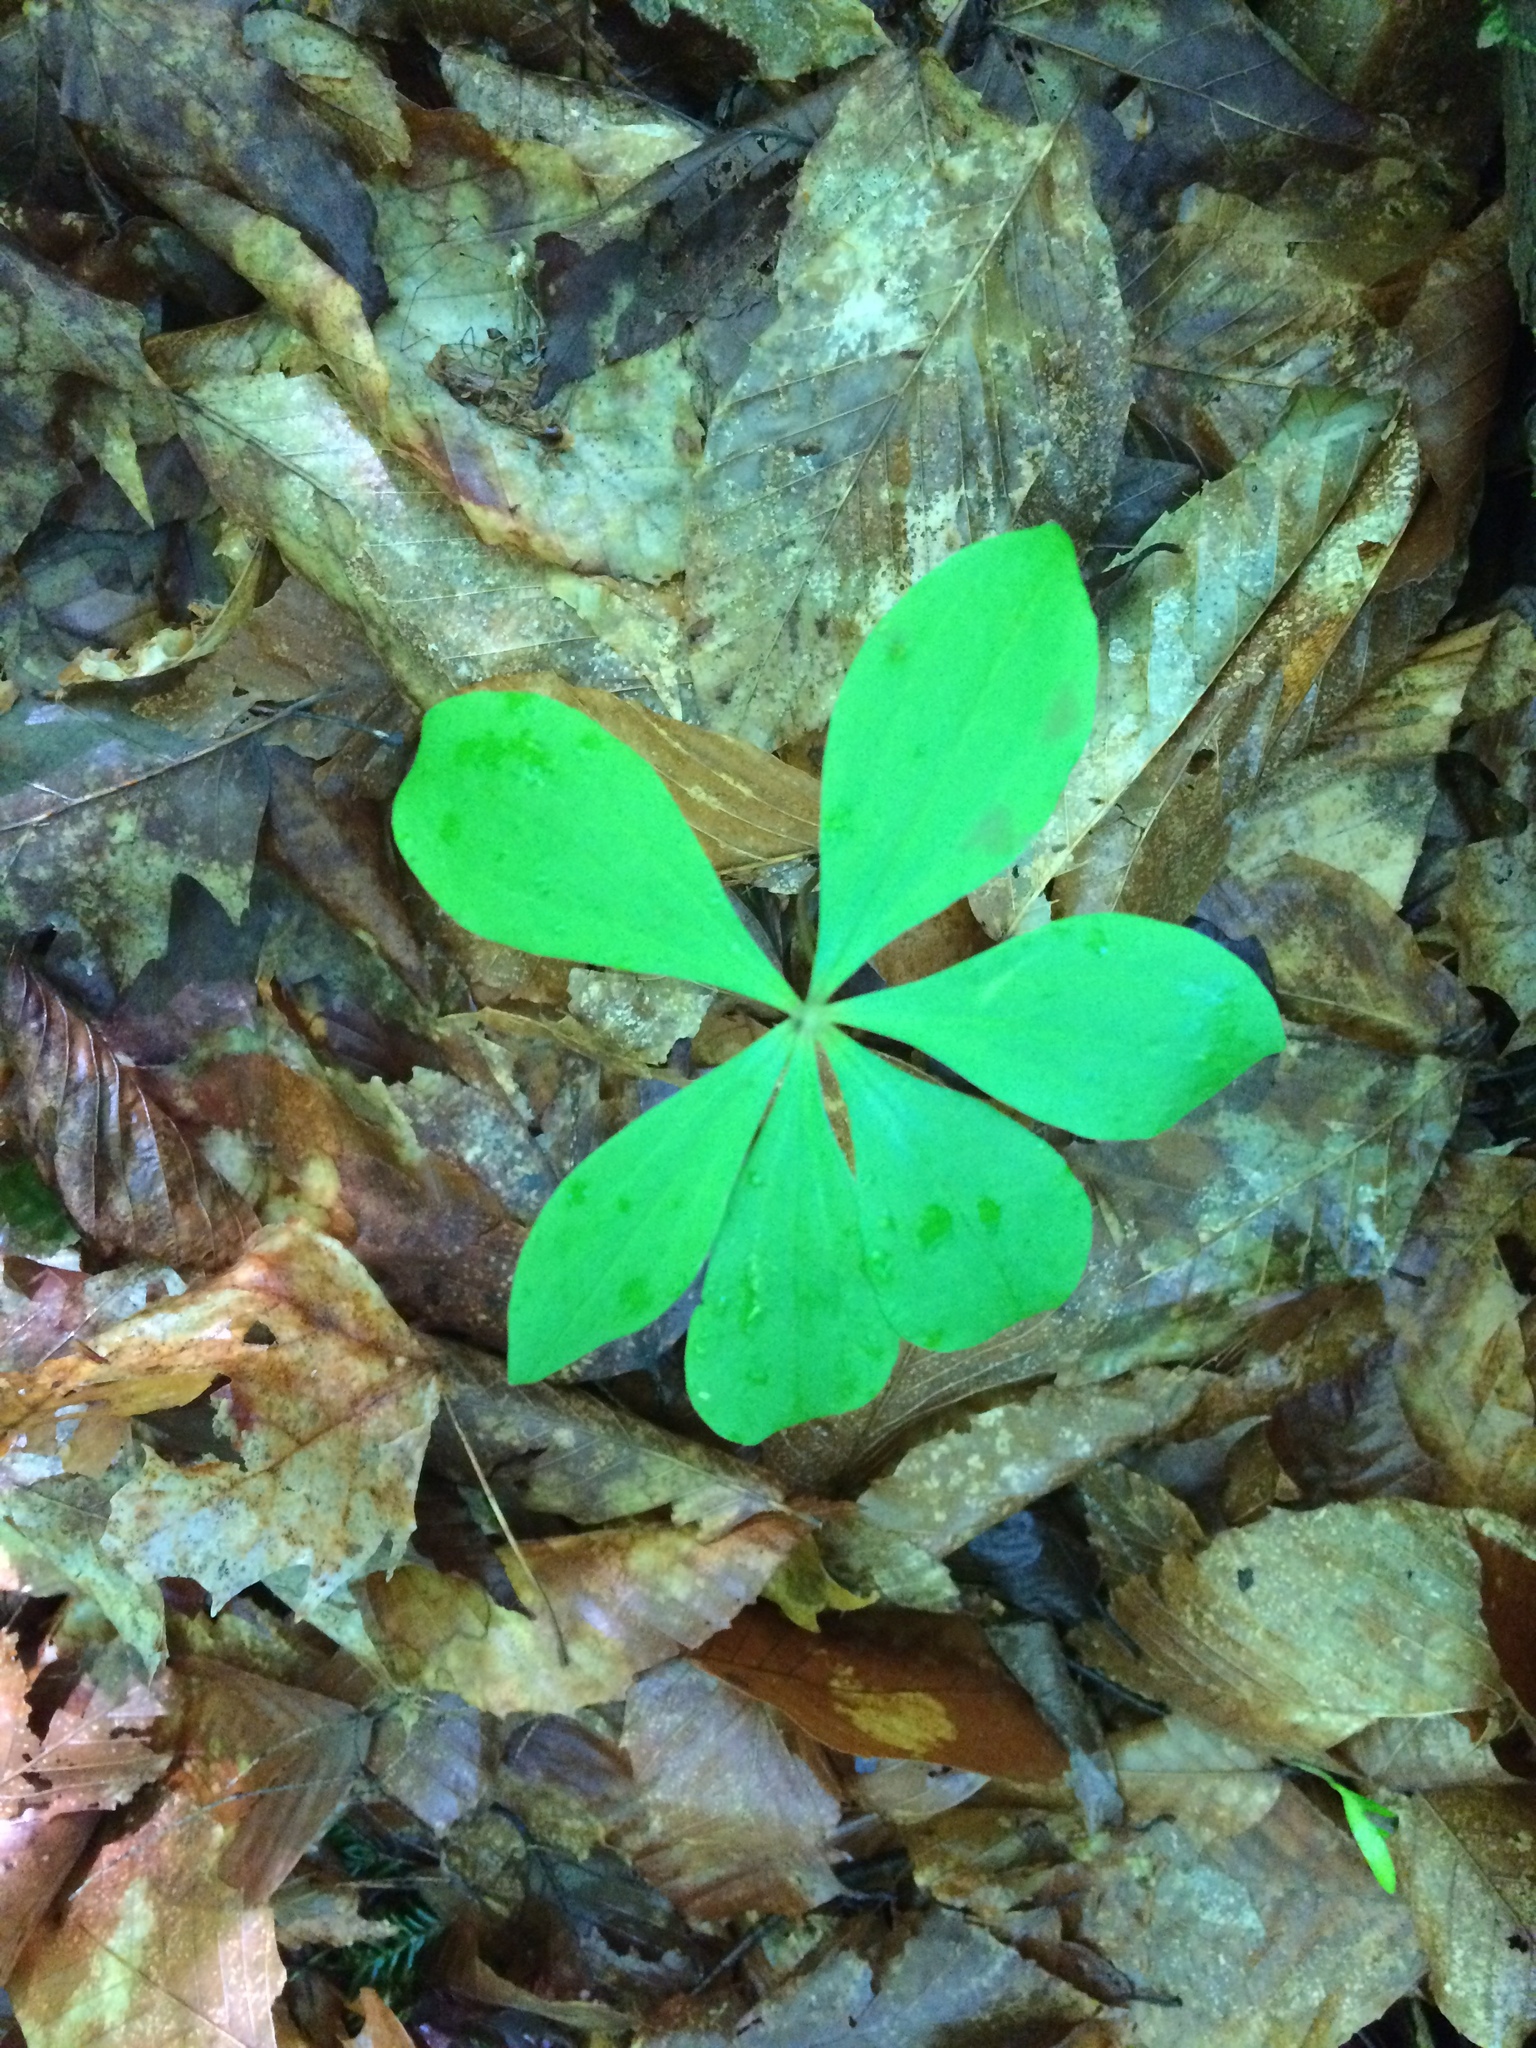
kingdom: Plantae
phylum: Tracheophyta
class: Liliopsida
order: Liliales
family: Liliaceae
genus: Medeola
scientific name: Medeola virginiana
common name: Indian cucumber-root
